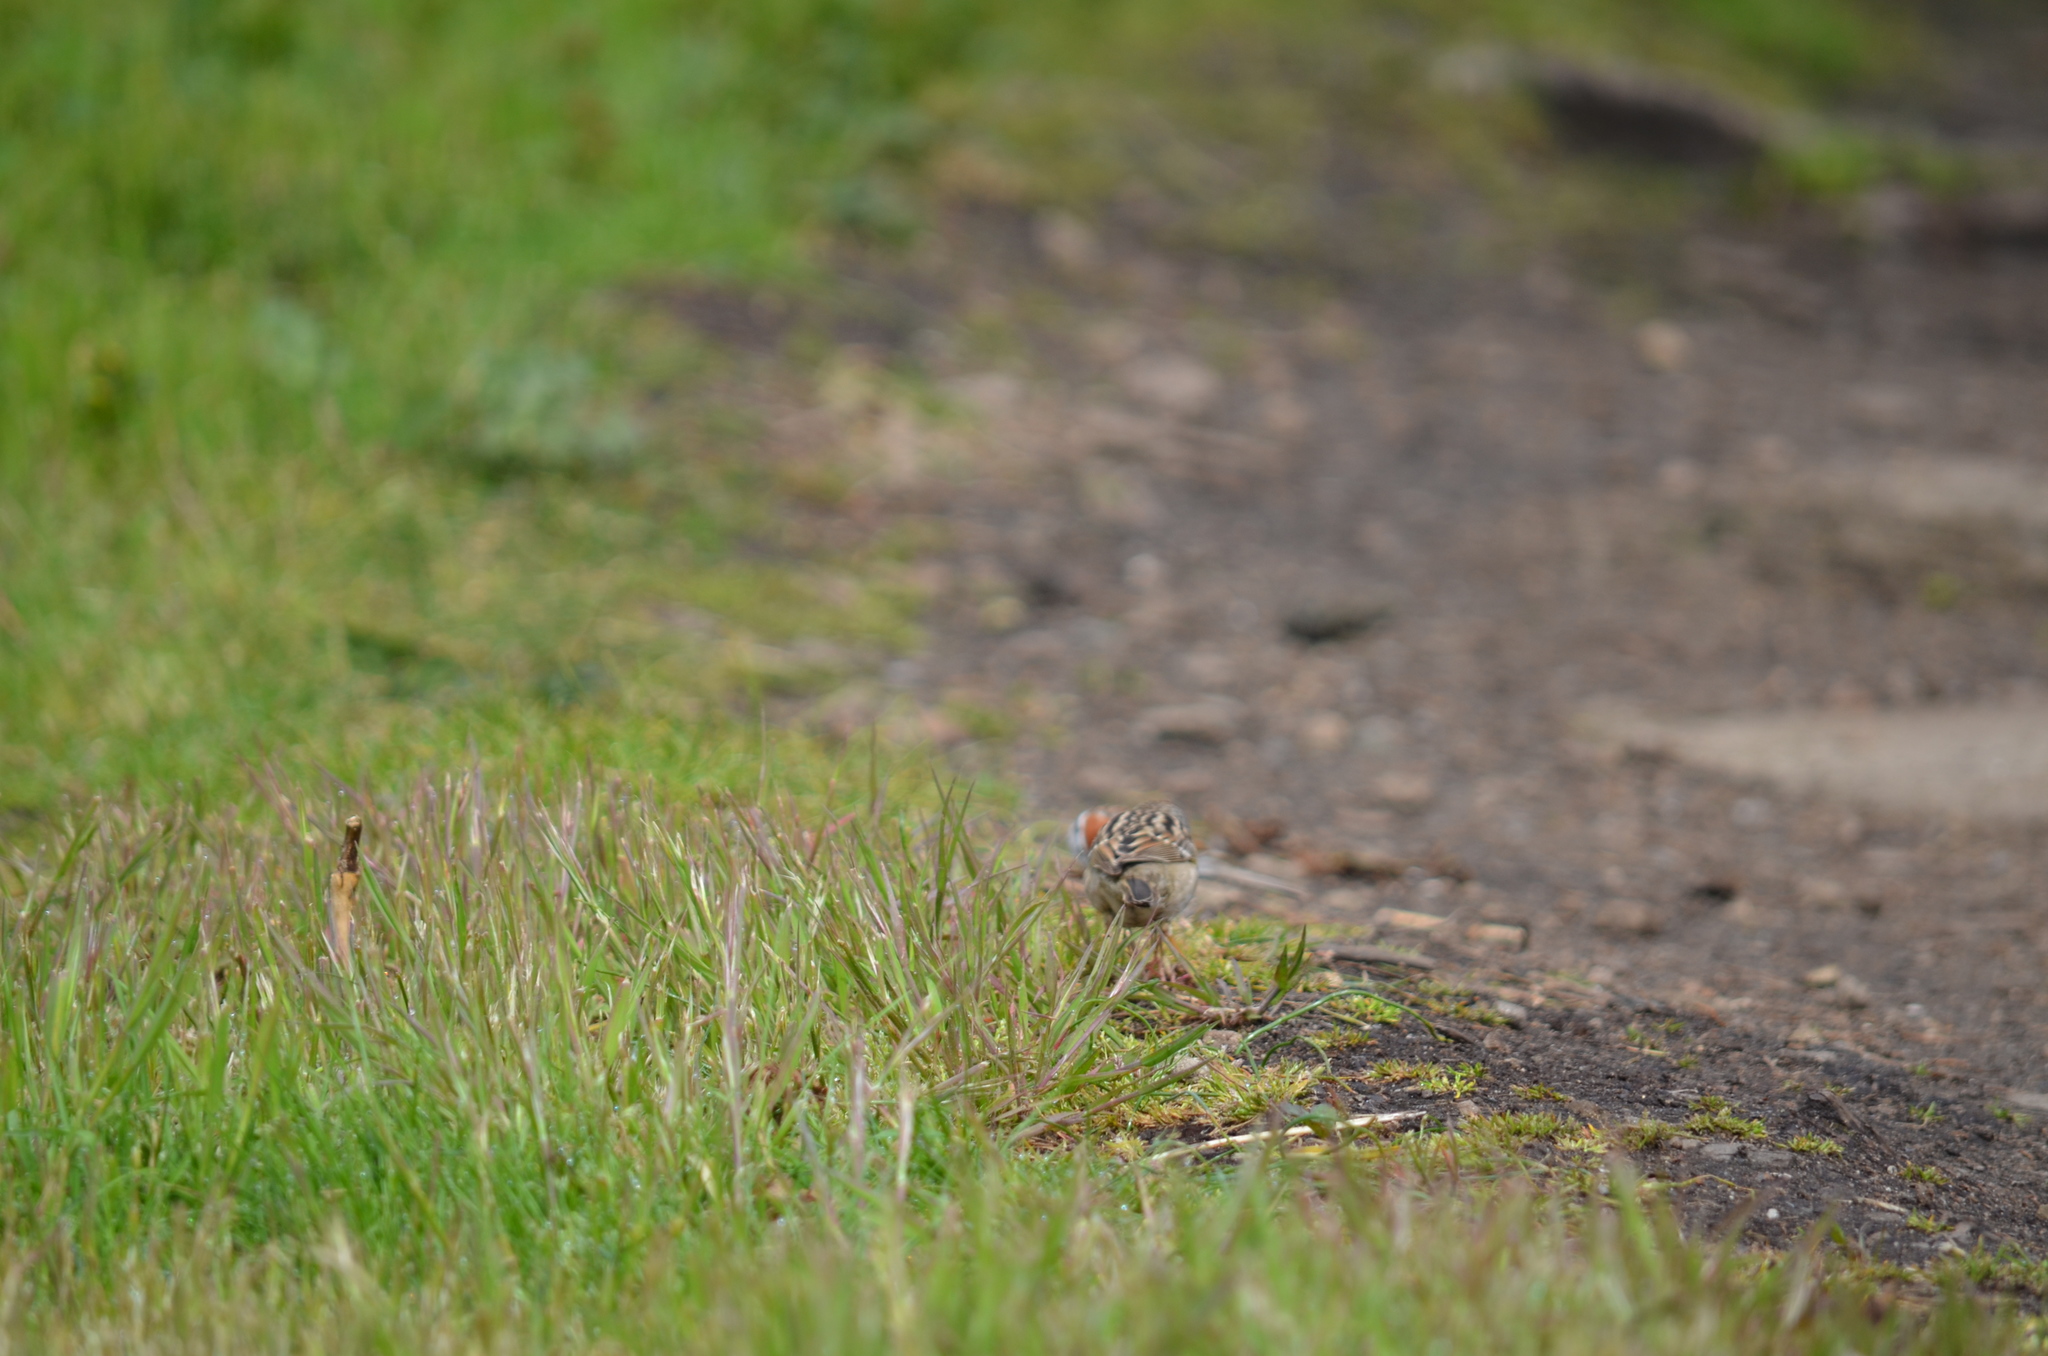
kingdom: Animalia
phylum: Chordata
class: Aves
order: Passeriformes
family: Passerellidae
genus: Zonotrichia
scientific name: Zonotrichia leucophrys
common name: White-crowned sparrow
